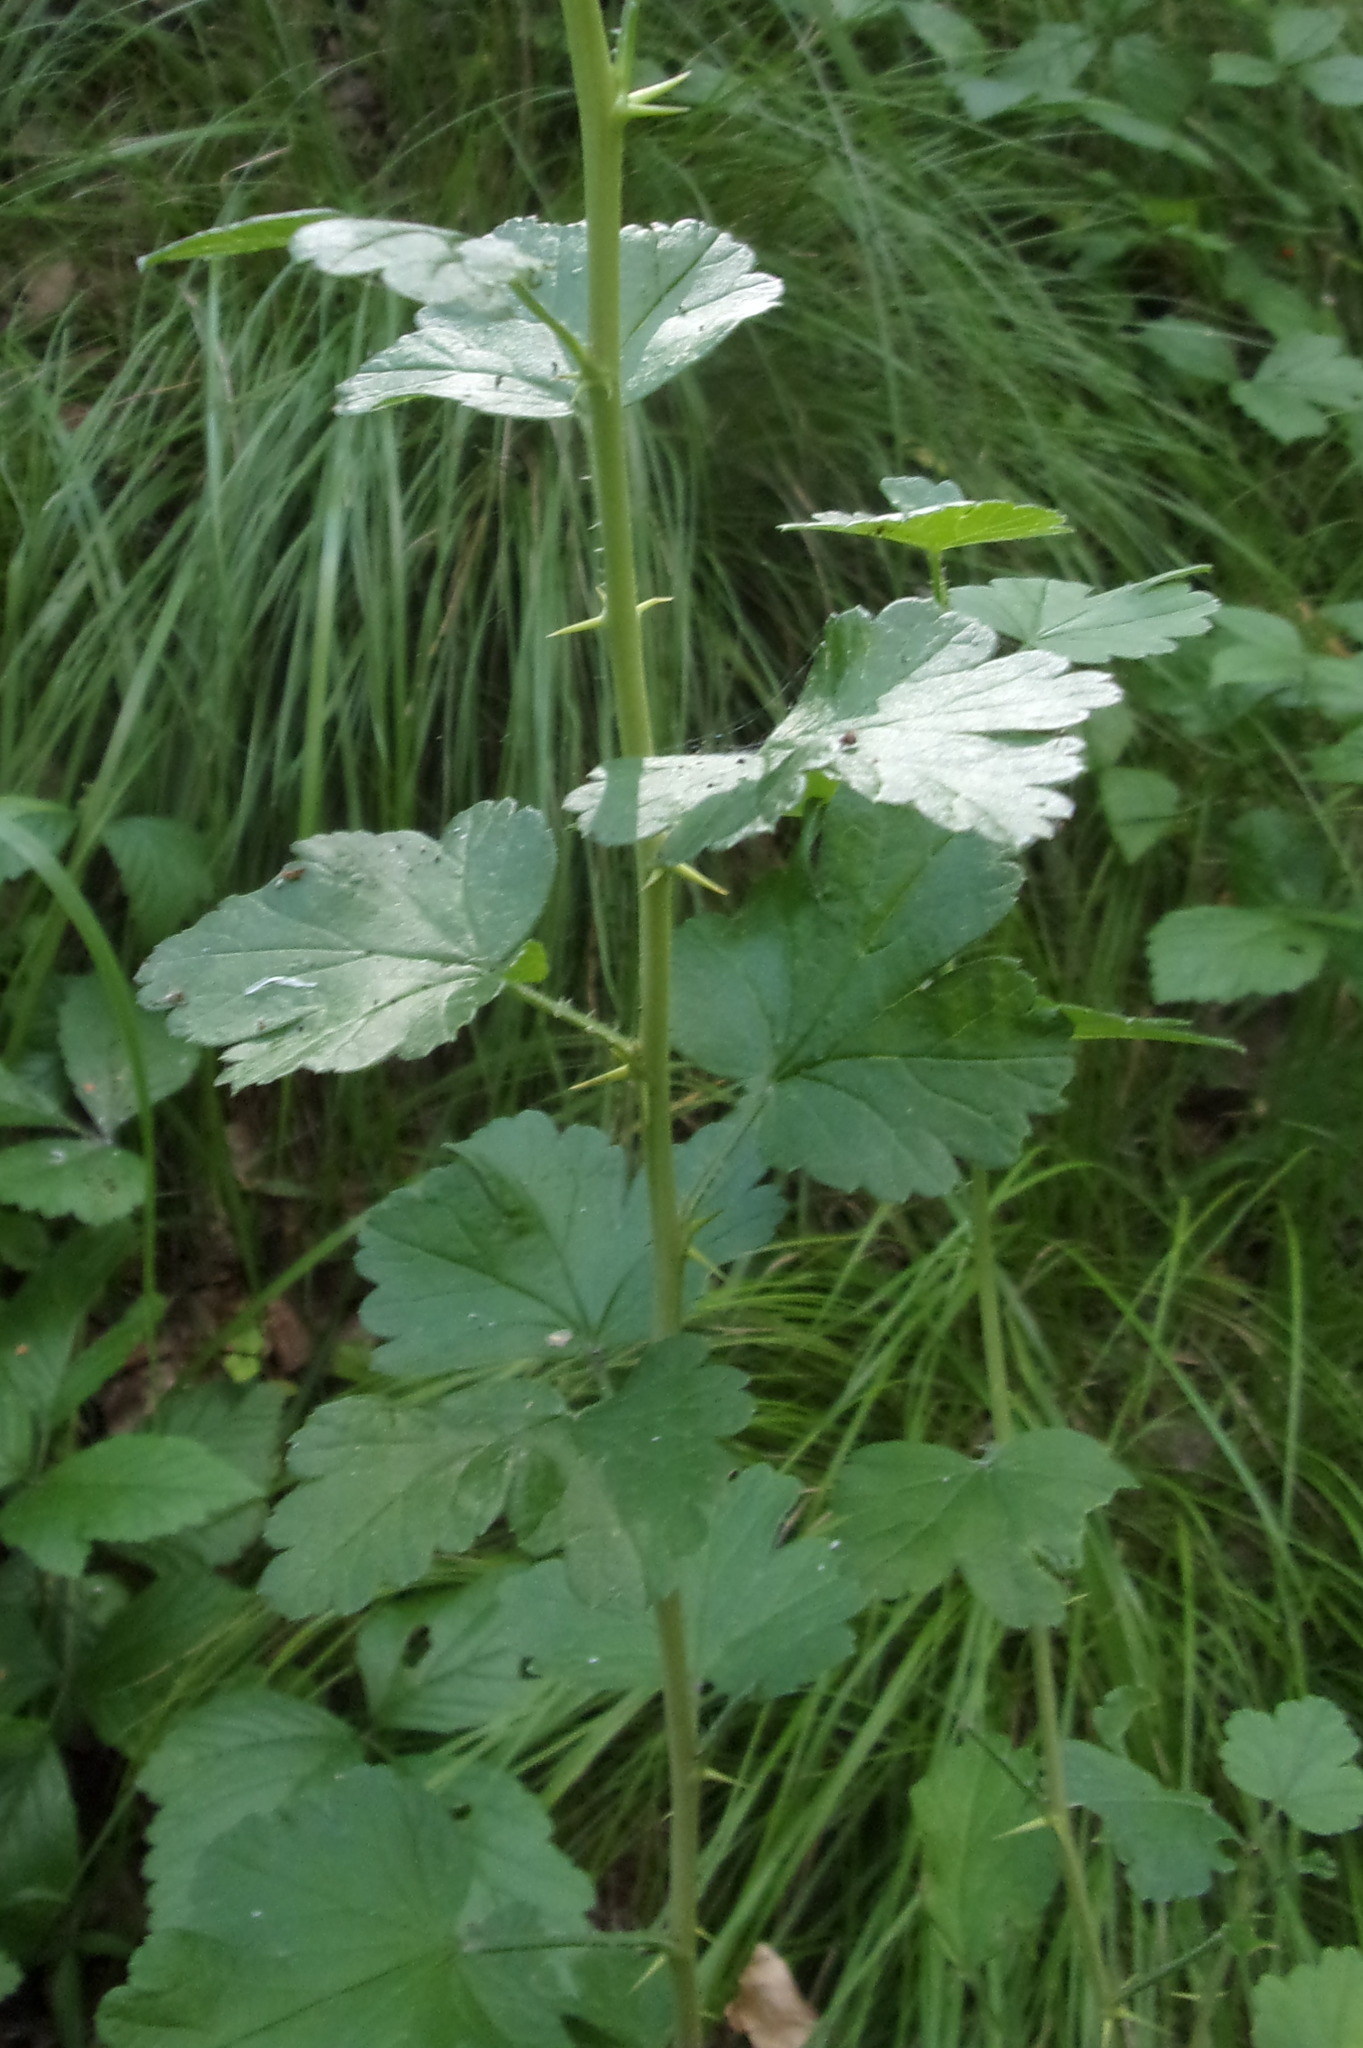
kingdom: Plantae
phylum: Tracheophyta
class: Magnoliopsida
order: Saxifragales
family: Grossulariaceae
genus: Ribes
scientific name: Ribes uva-crispa
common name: Gooseberry
